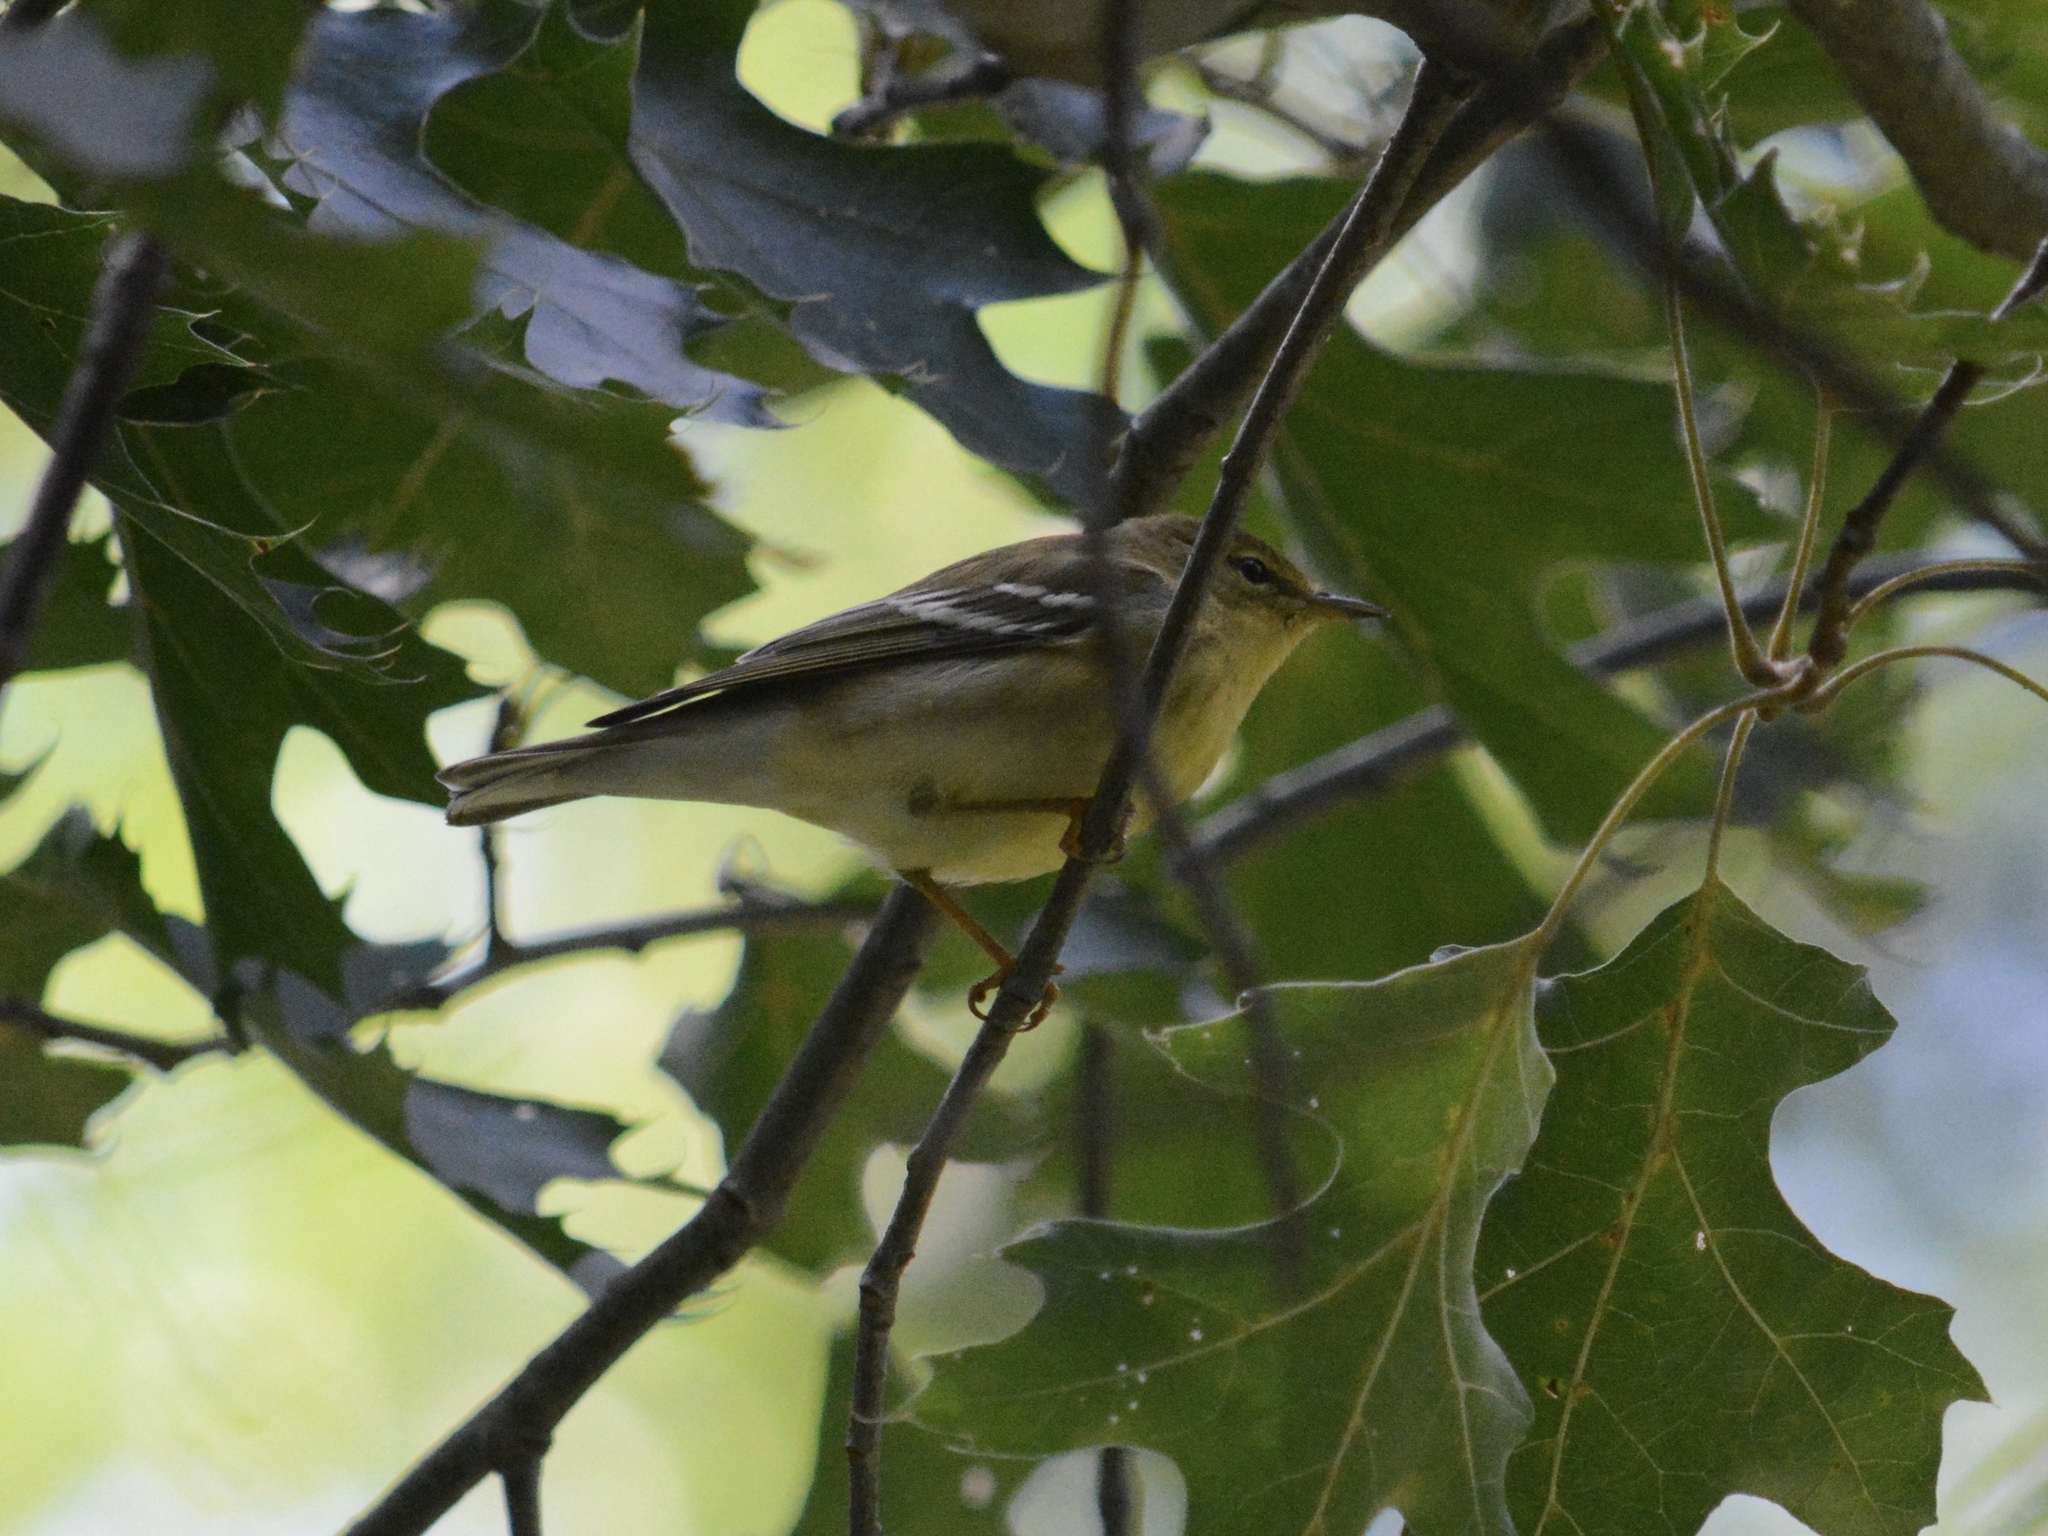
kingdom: Animalia
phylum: Chordata
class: Aves
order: Passeriformes
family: Parulidae
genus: Setophaga
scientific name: Setophaga striata
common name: Blackpoll warbler
